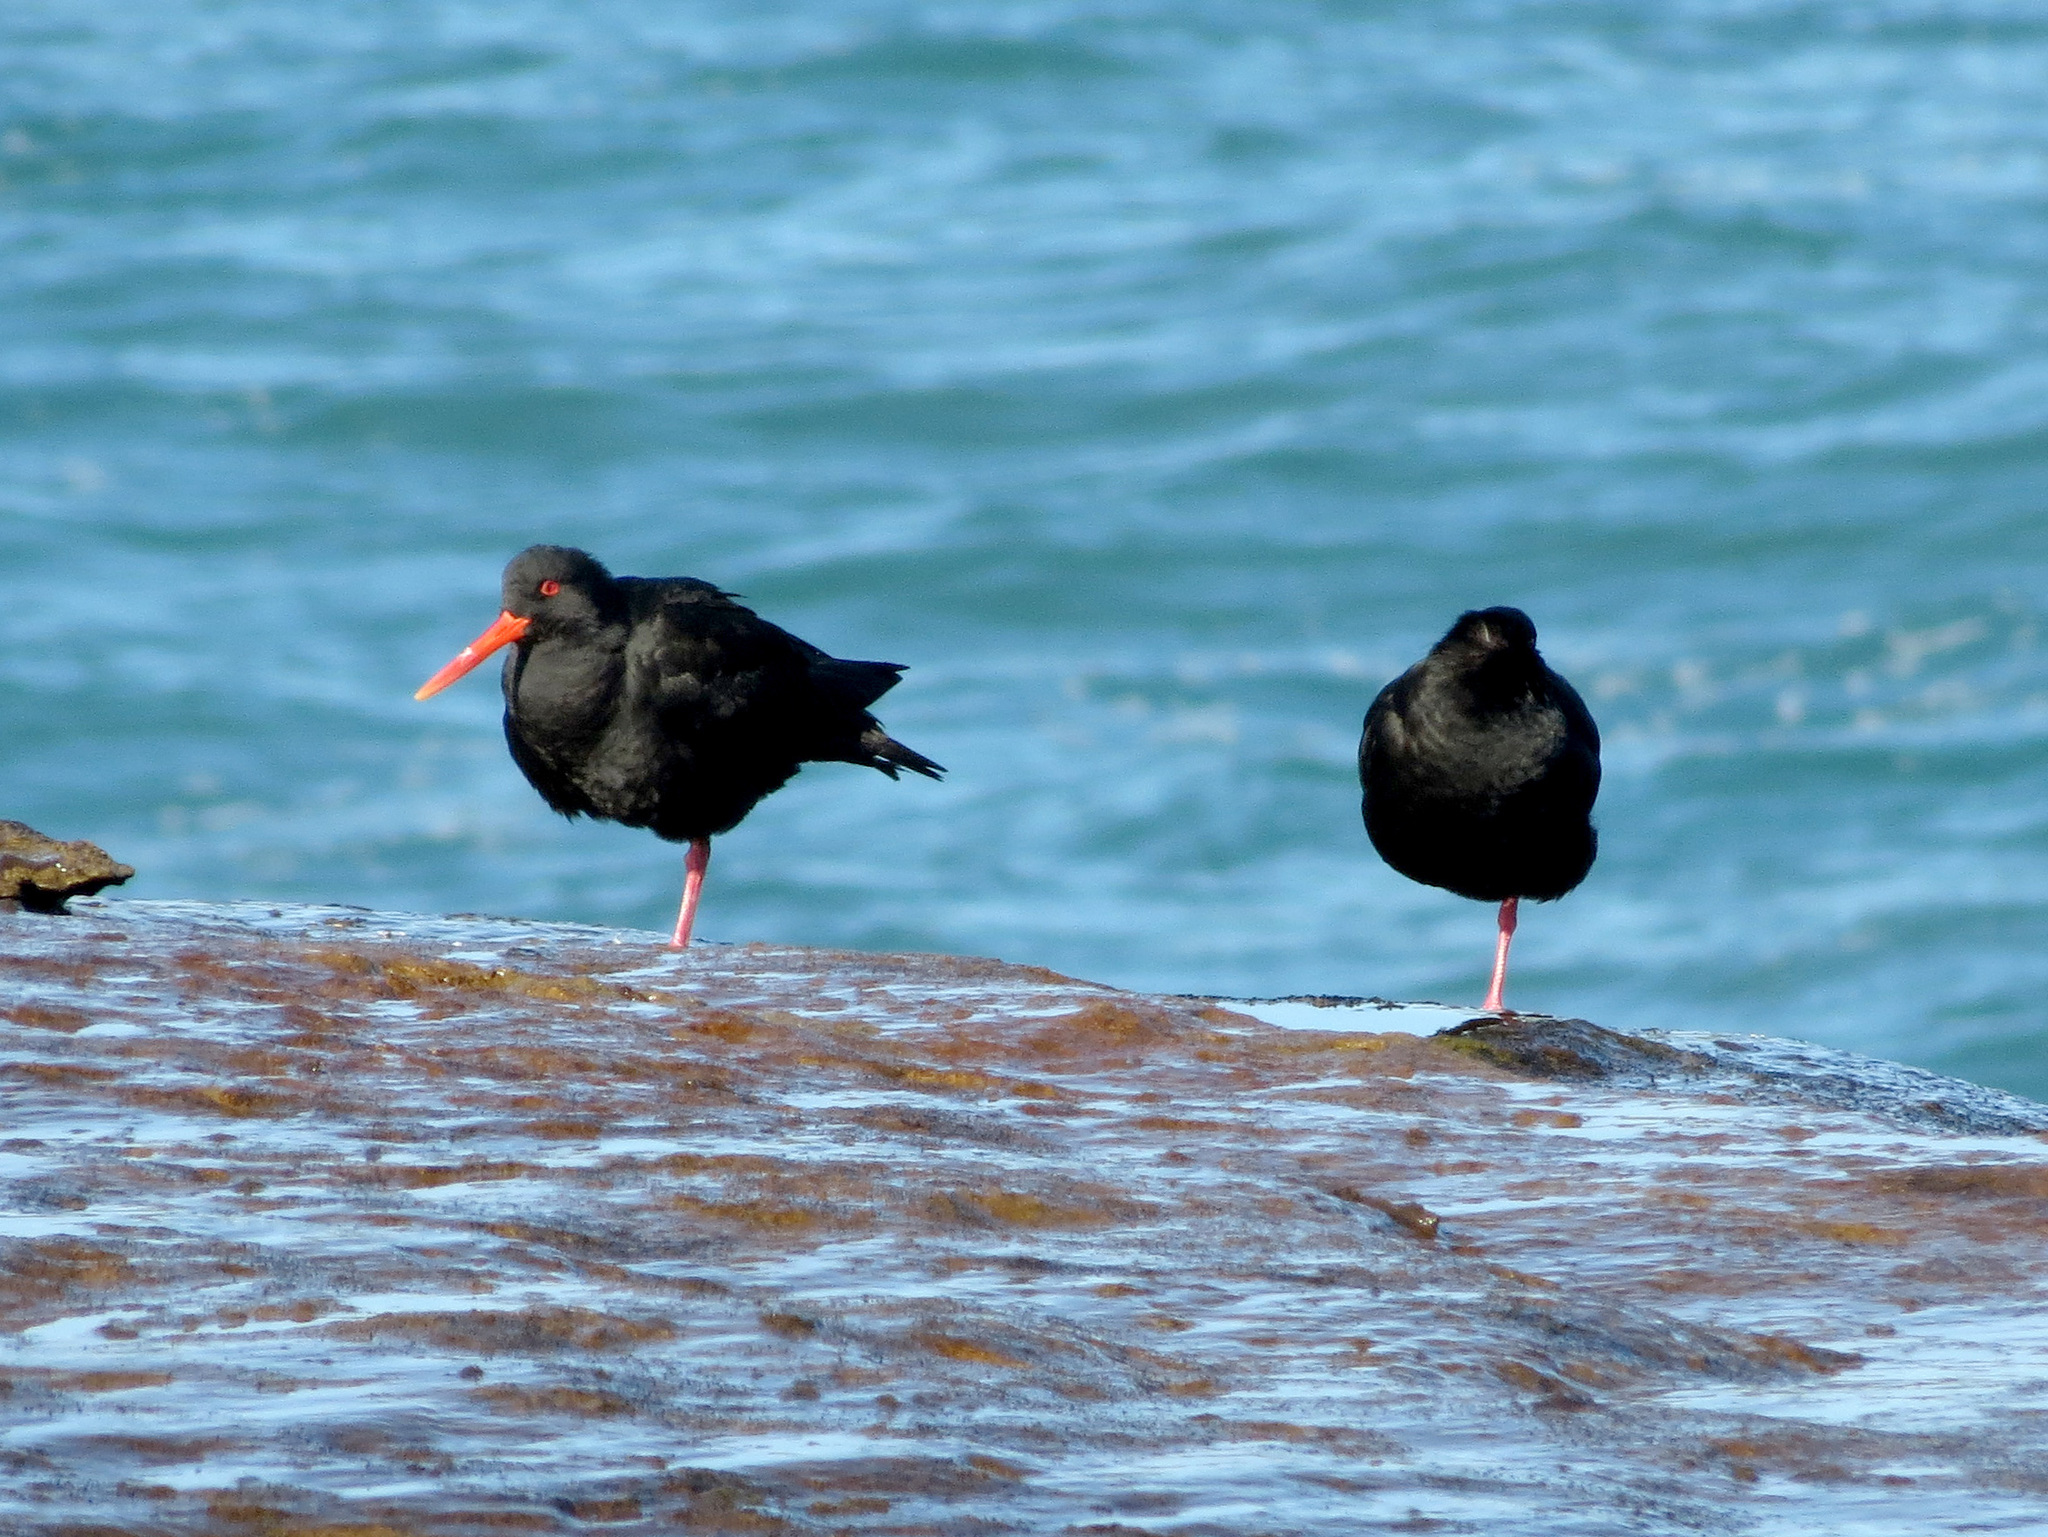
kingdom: Animalia
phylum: Chordata
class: Aves
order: Charadriiformes
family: Haematopodidae
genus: Haematopus
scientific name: Haematopus unicolor
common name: Variable oystercatcher
